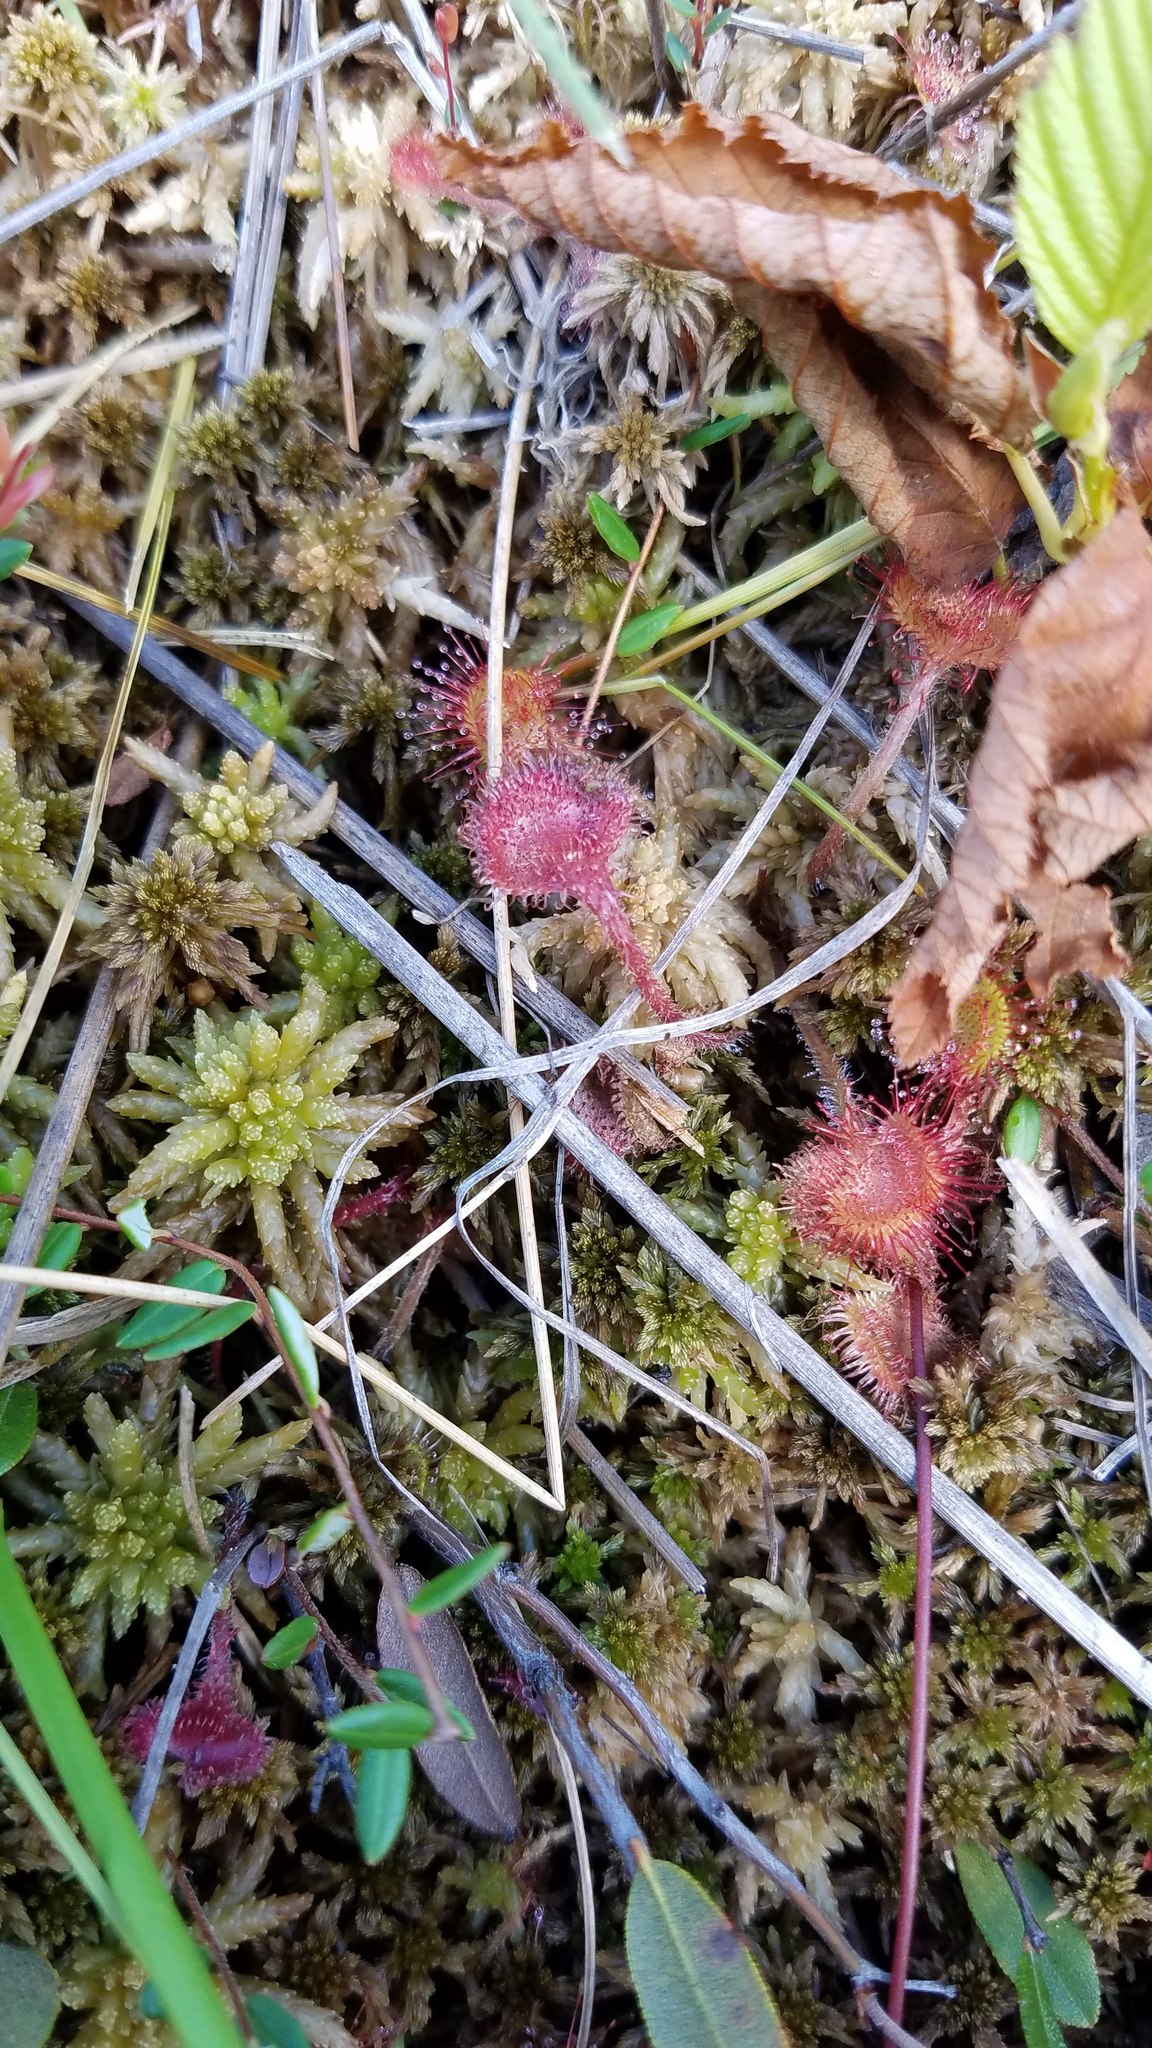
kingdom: Plantae
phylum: Tracheophyta
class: Magnoliopsida
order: Caryophyllales
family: Droseraceae
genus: Drosera
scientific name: Drosera rotundifolia
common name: Round-leaved sundew
